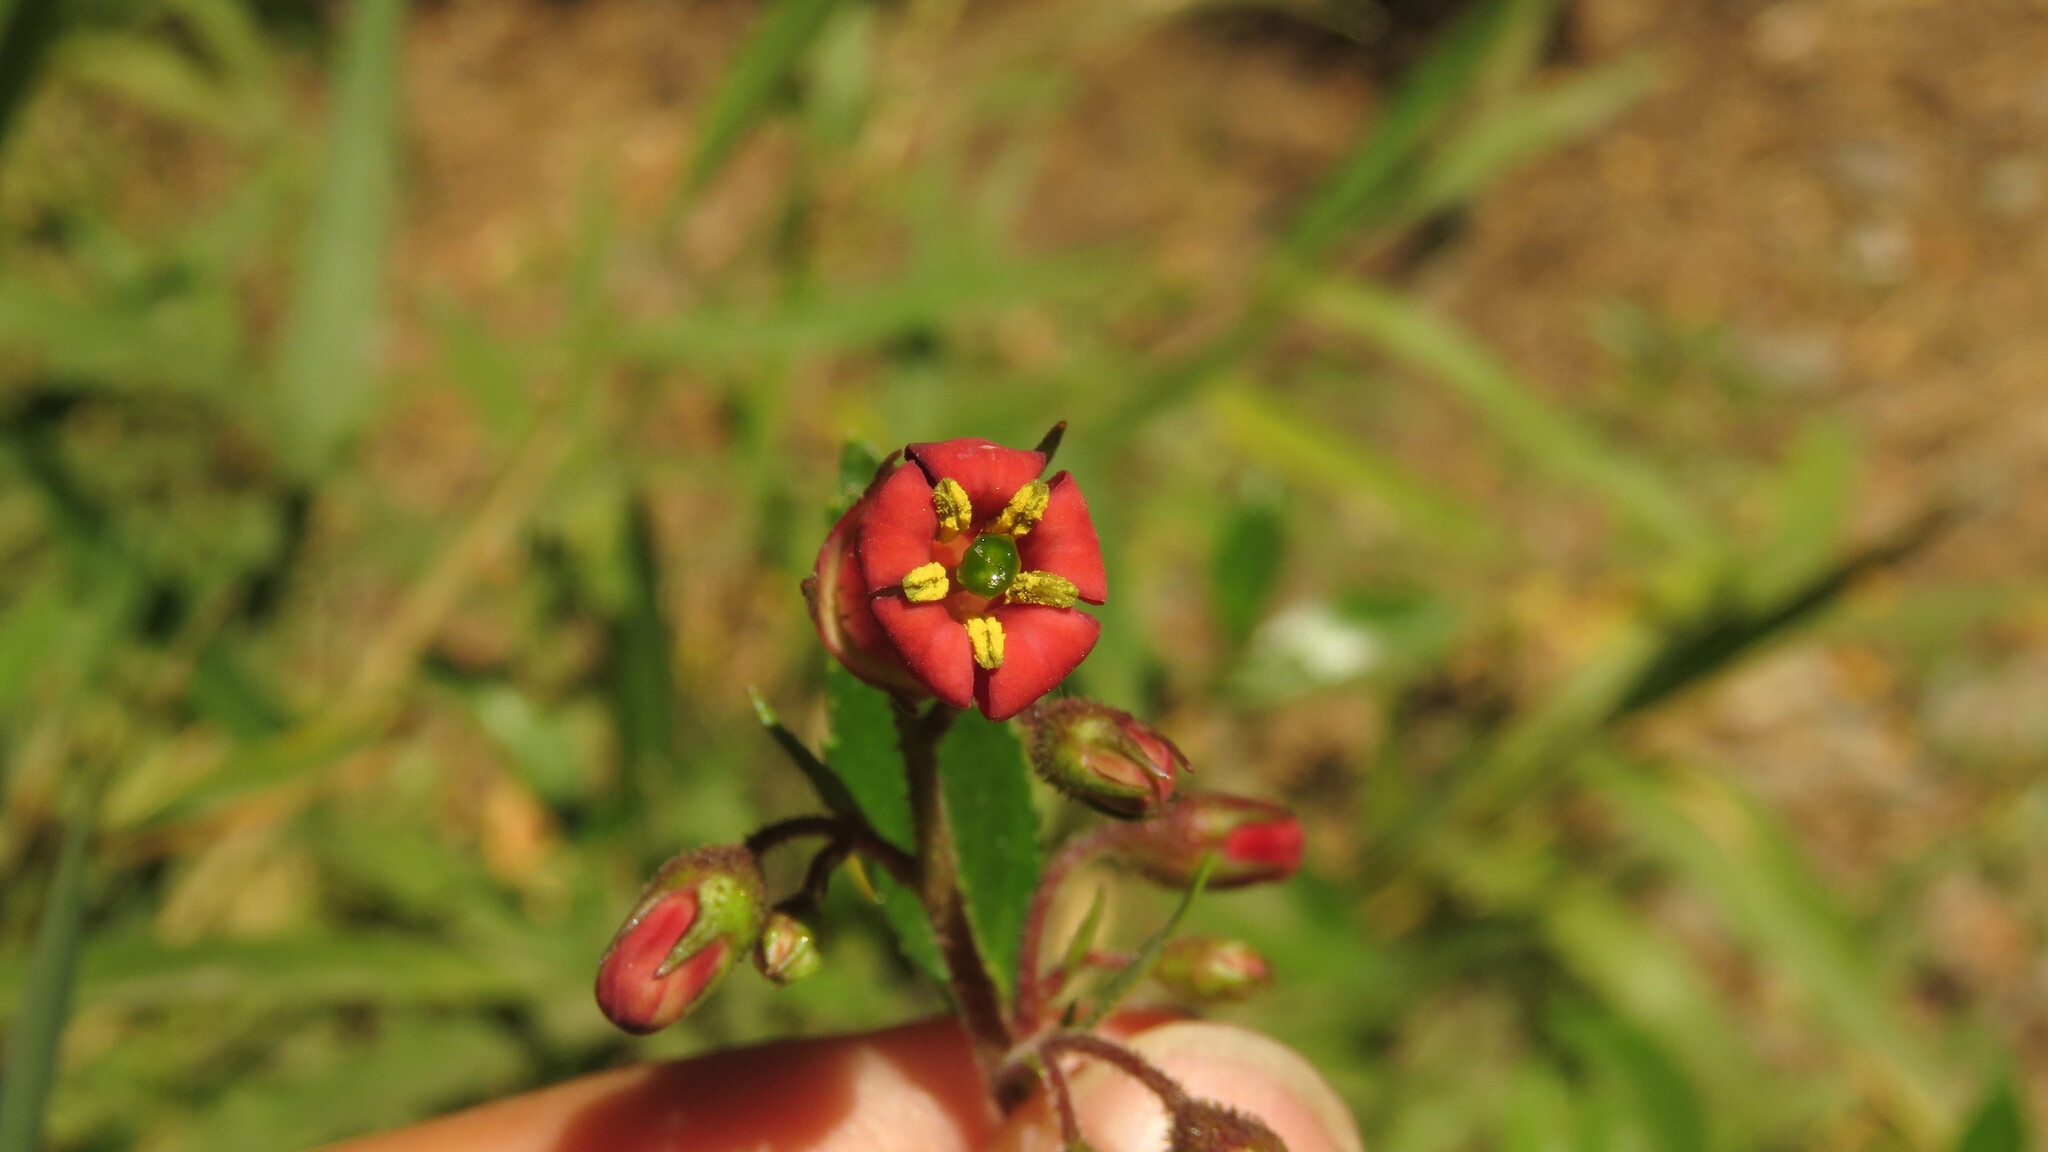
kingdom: Plantae
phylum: Tracheophyta
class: Magnoliopsida
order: Escalloniales
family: Escalloniaceae
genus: Escallonia
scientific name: Escallonia rubra
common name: Redclaws
